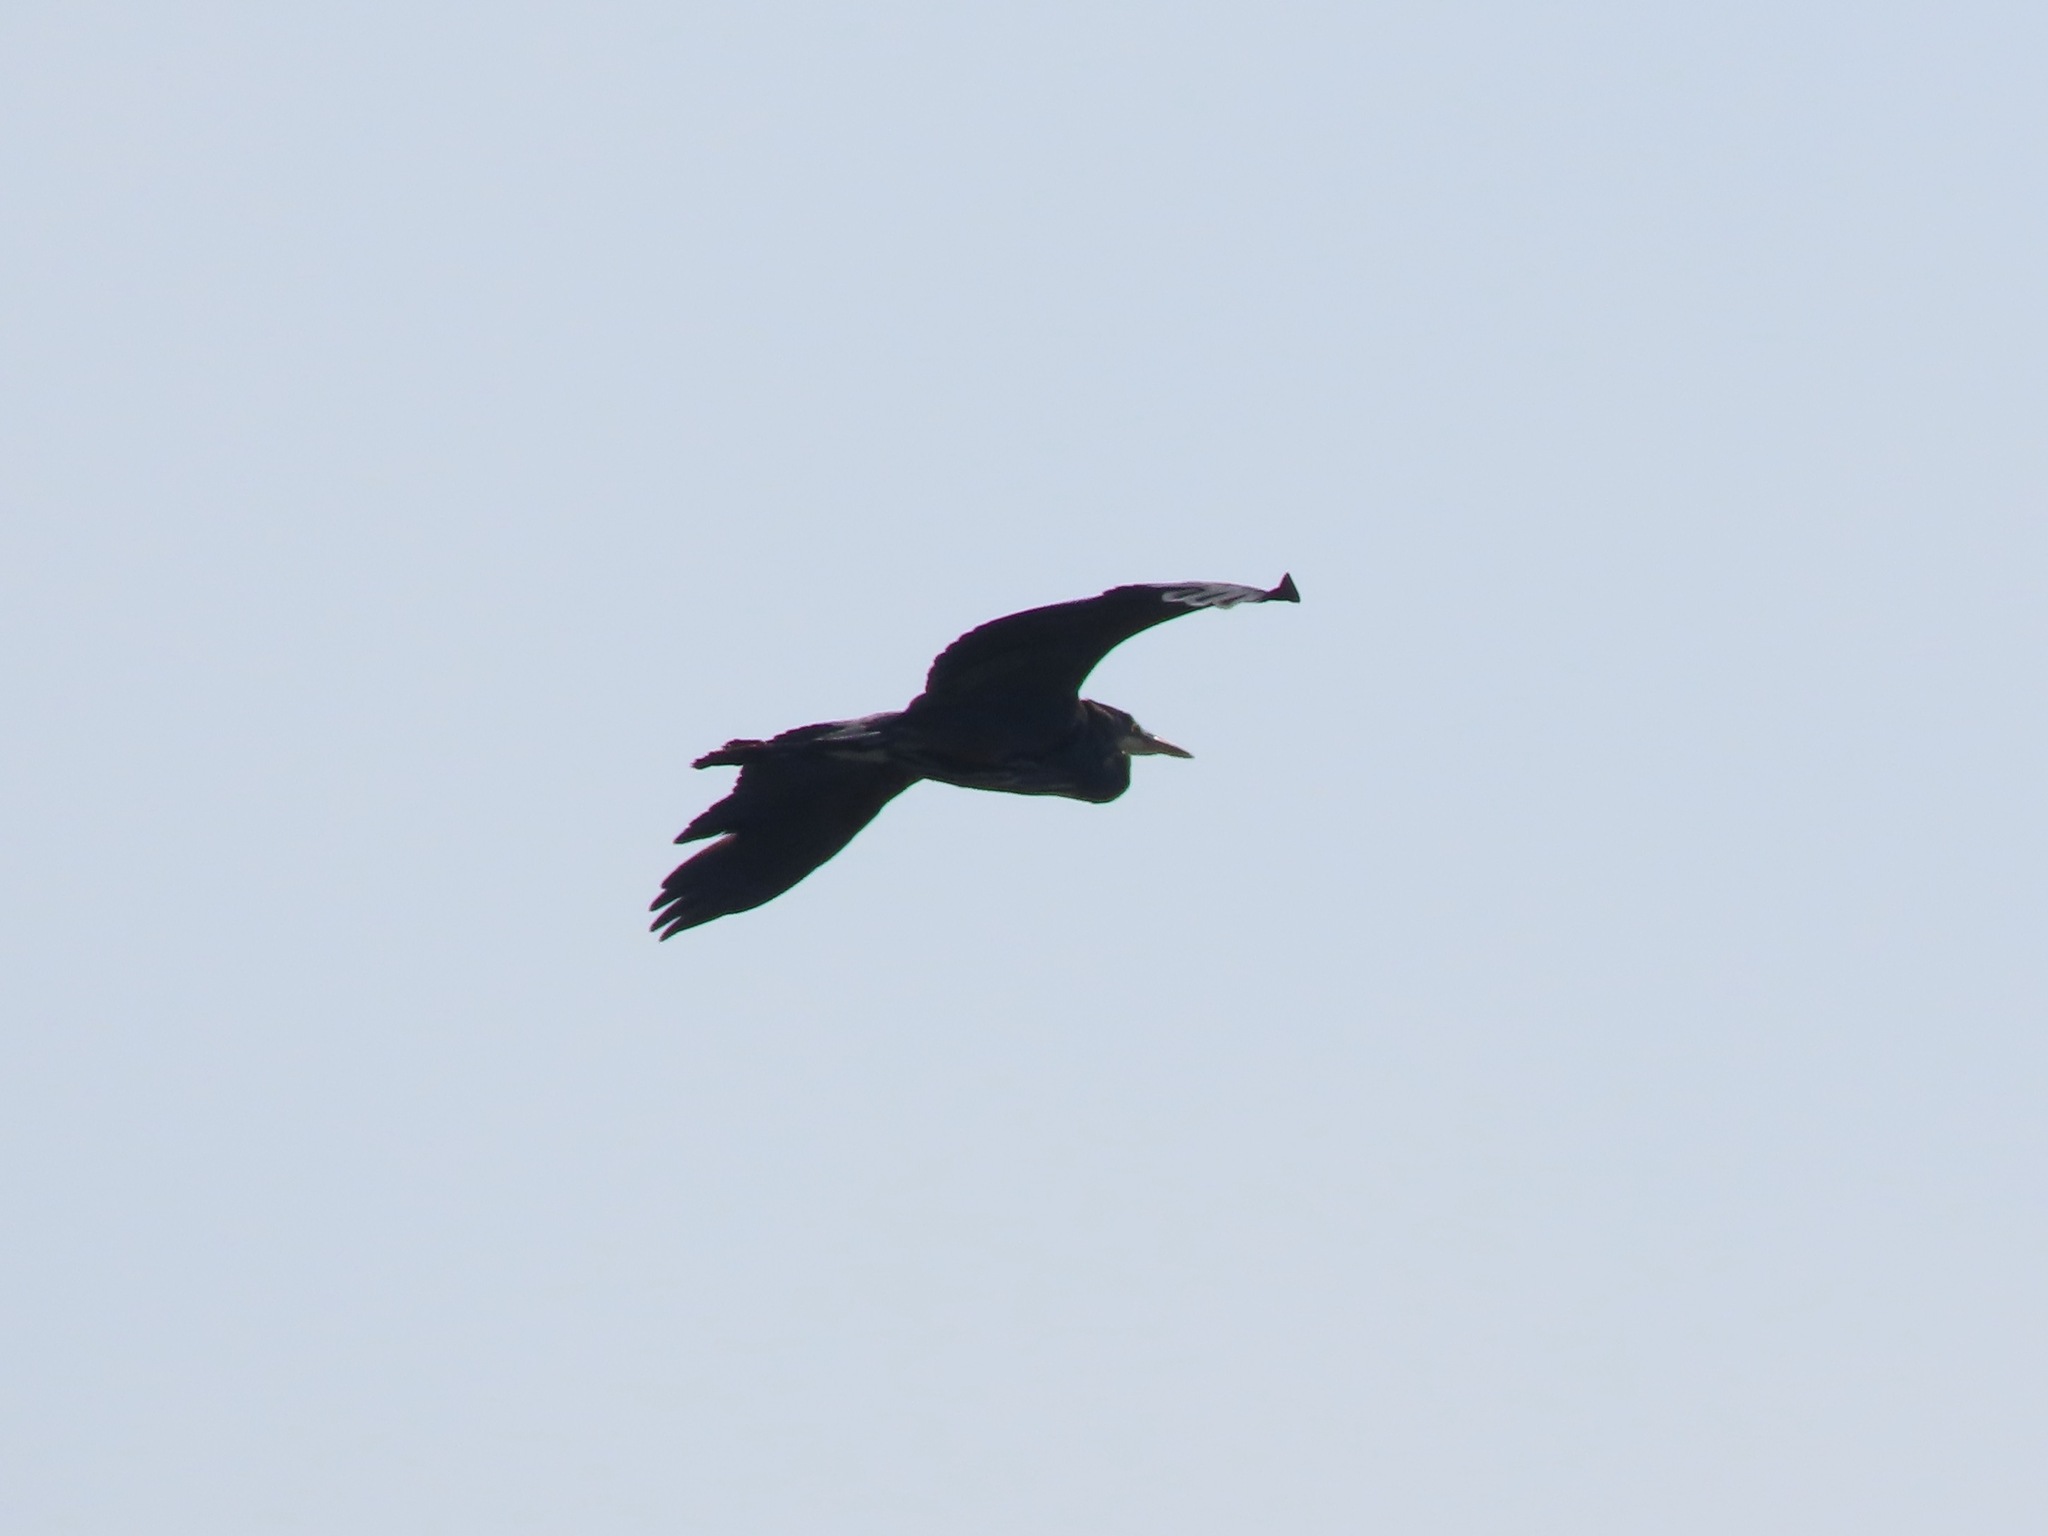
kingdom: Animalia
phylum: Chordata
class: Aves
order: Pelecaniformes
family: Ardeidae
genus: Ardea
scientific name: Ardea herodias
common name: Great blue heron
